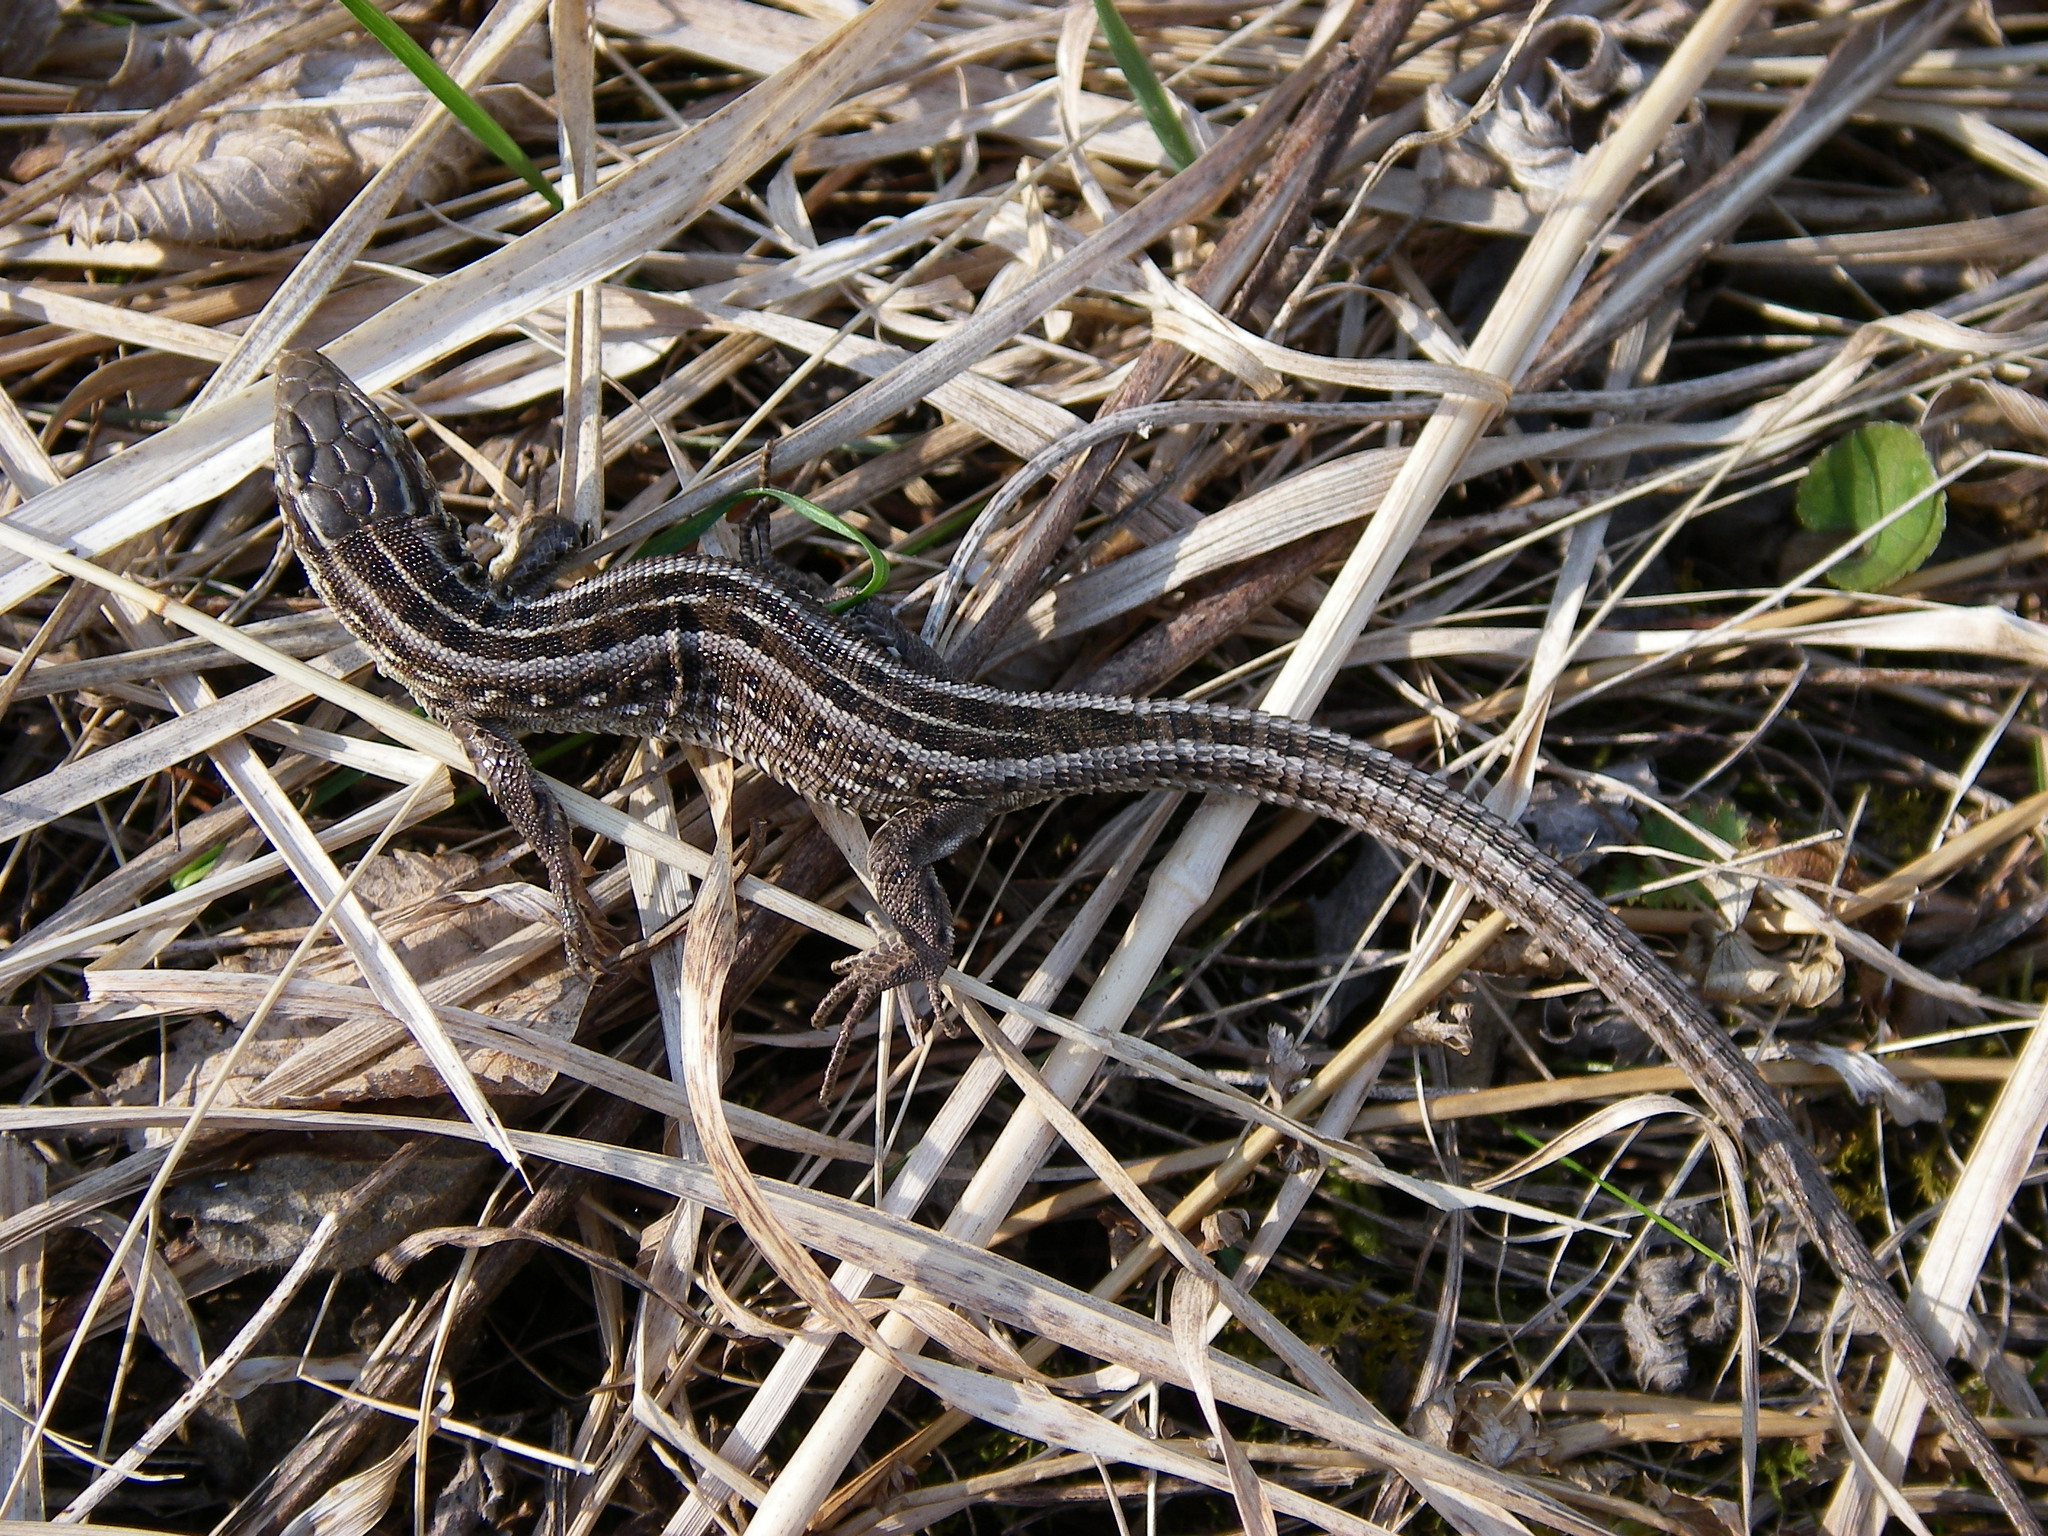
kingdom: Animalia
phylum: Chordata
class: Squamata
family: Lacertidae
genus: Lacerta
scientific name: Lacerta agilis
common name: Sand lizard
